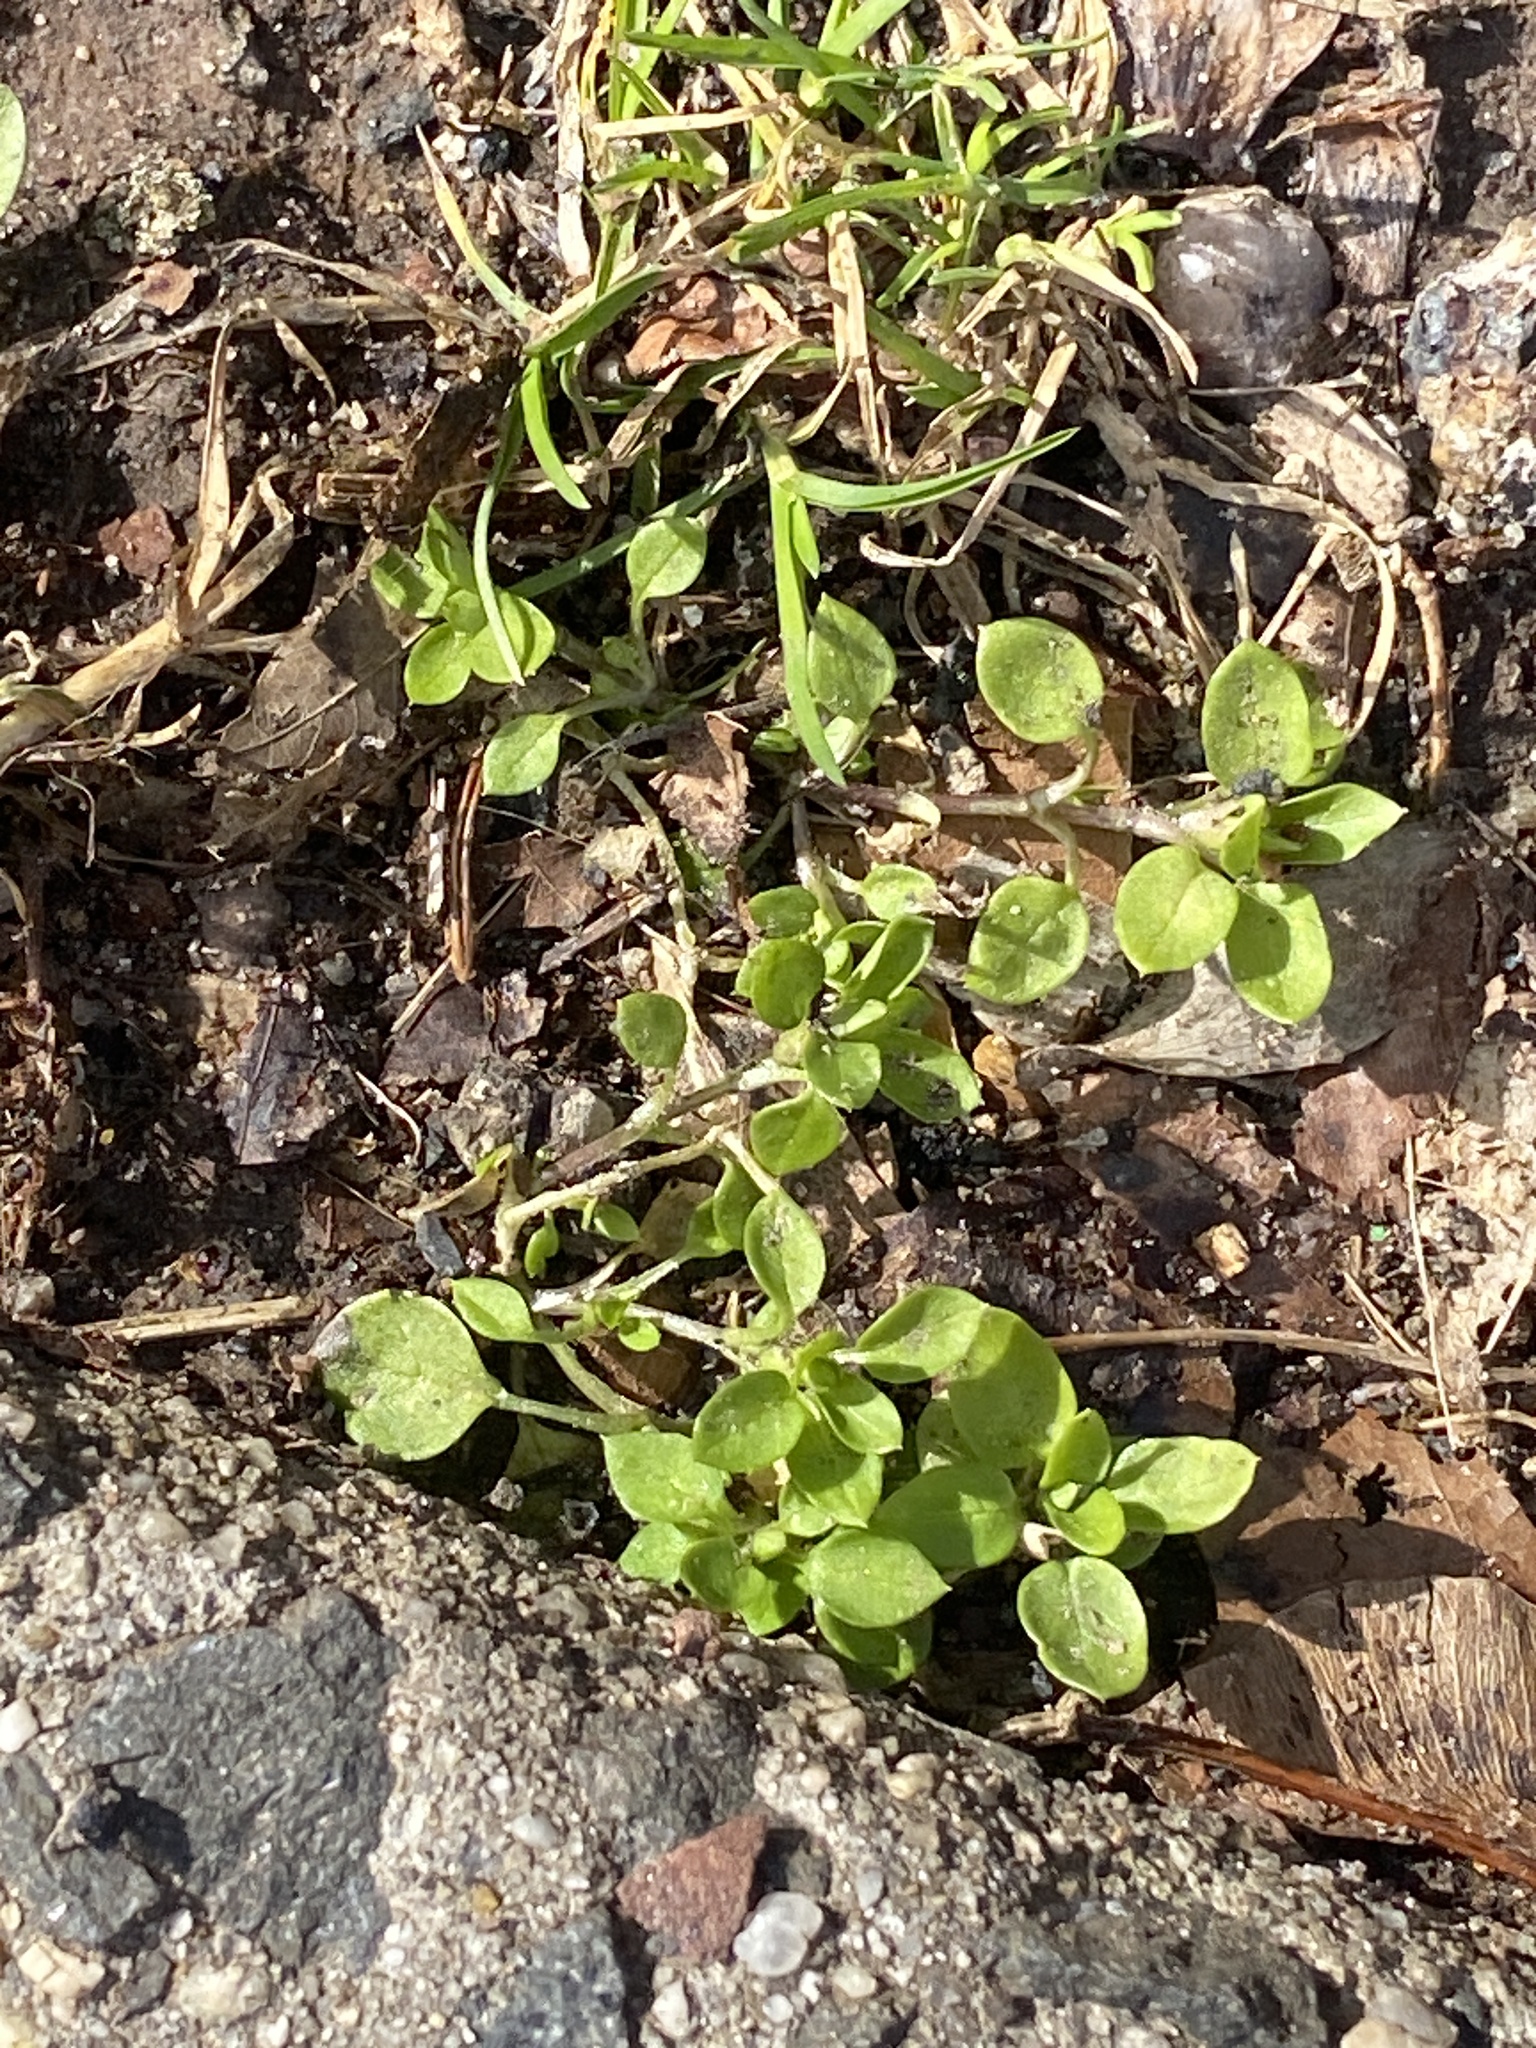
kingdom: Plantae
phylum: Tracheophyta
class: Magnoliopsida
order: Caryophyllales
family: Caryophyllaceae
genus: Stellaria
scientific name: Stellaria media
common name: Common chickweed
